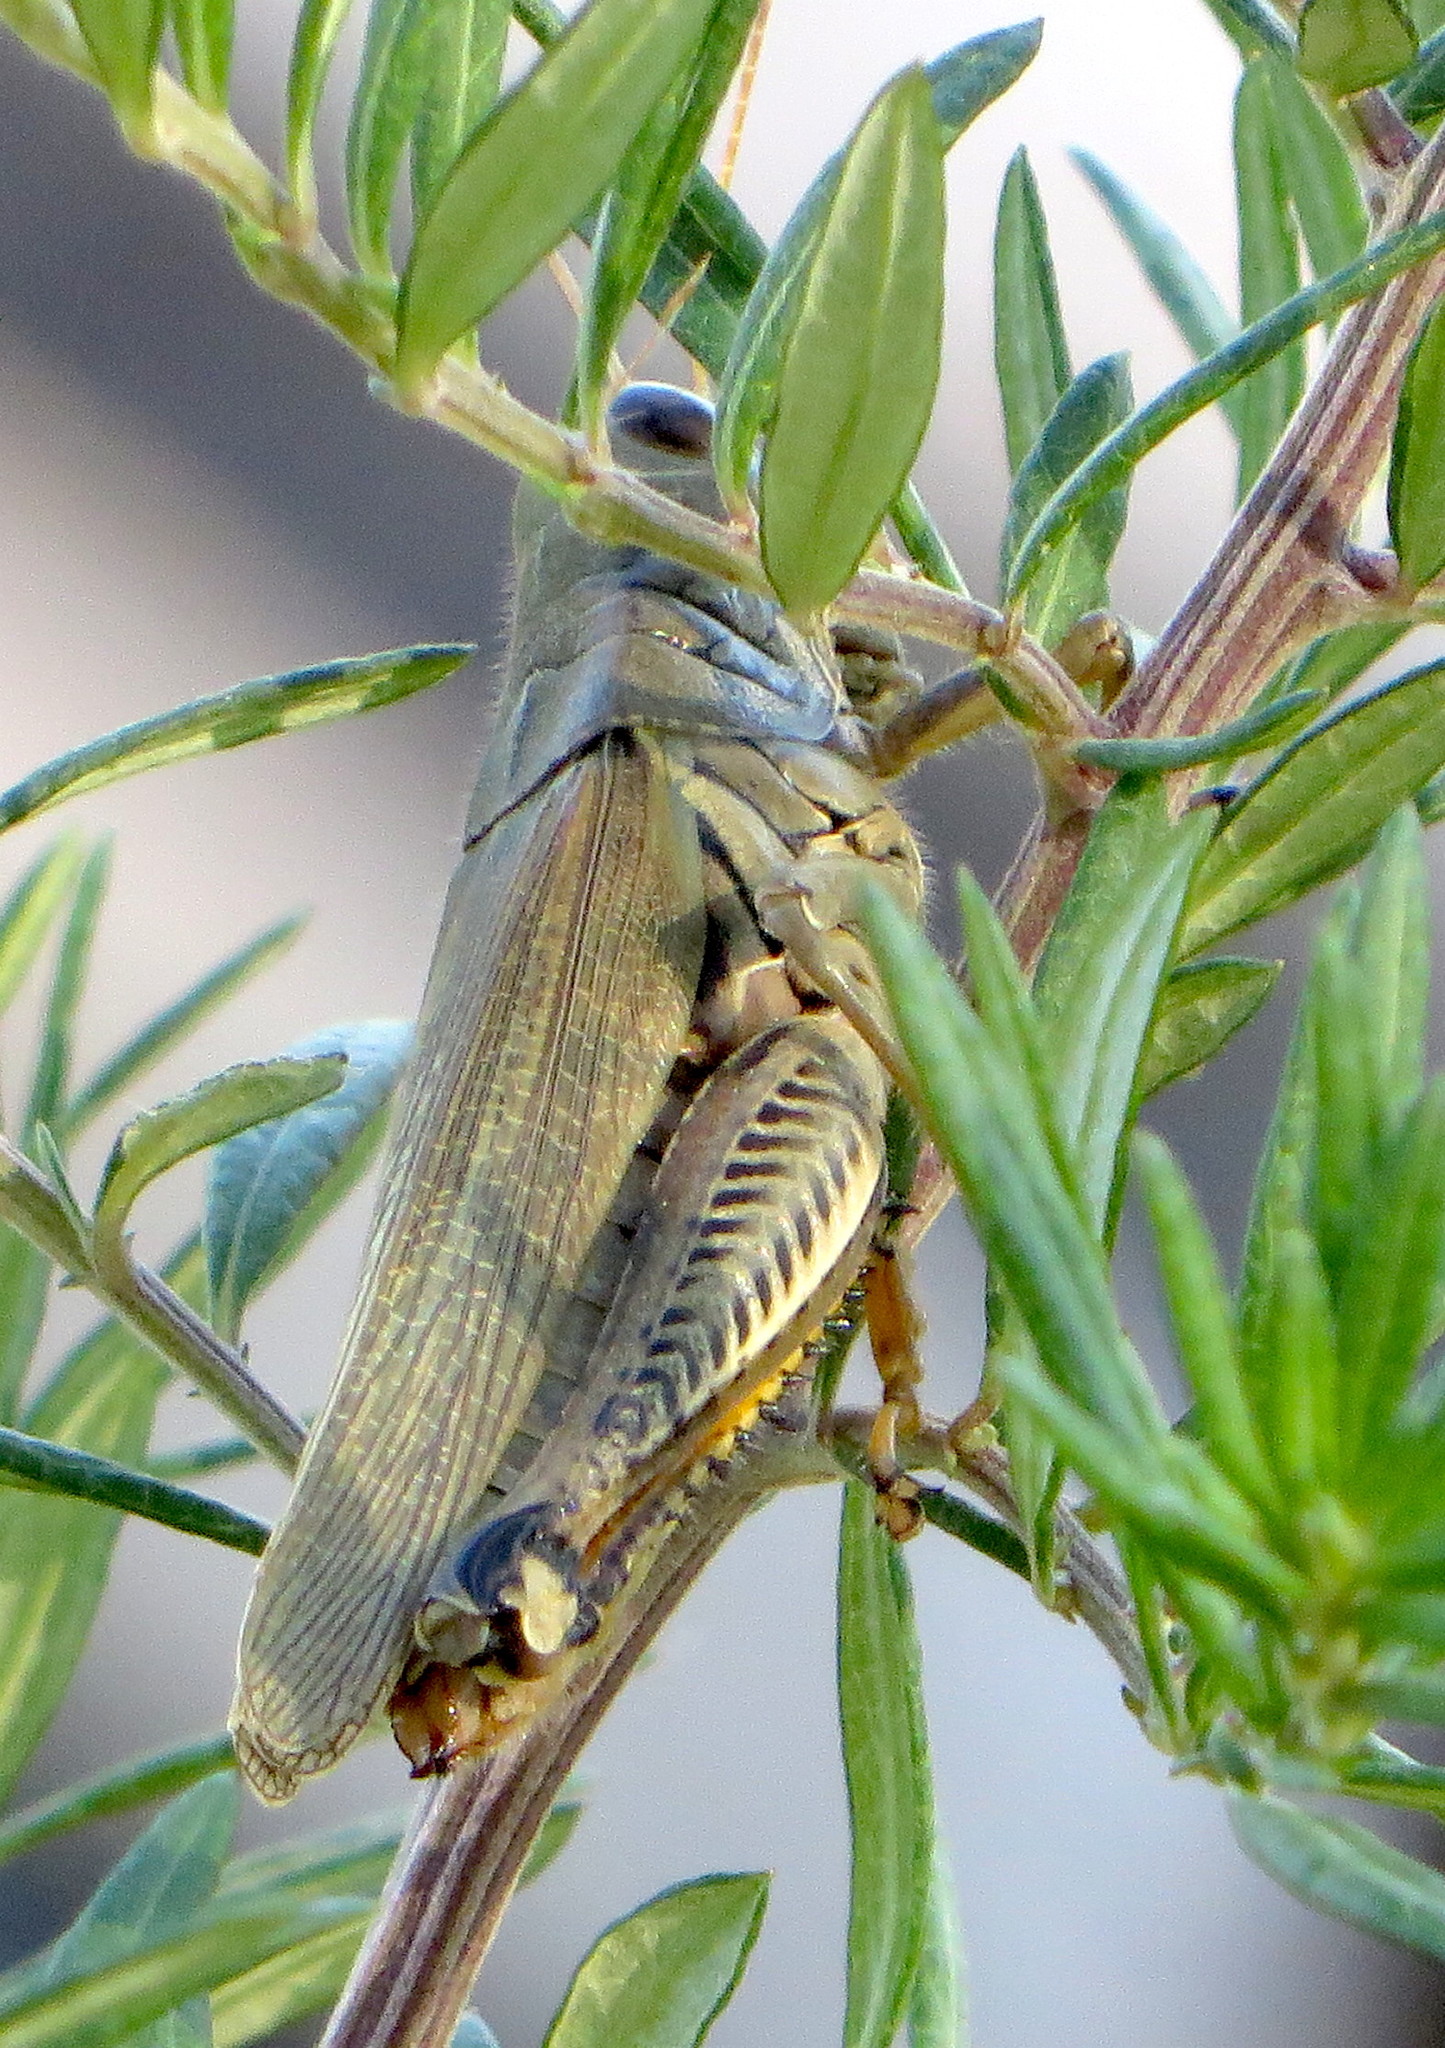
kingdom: Animalia
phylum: Arthropoda
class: Insecta
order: Orthoptera
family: Acrididae
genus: Melanoplus
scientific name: Melanoplus differentialis
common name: Differential grasshopper
